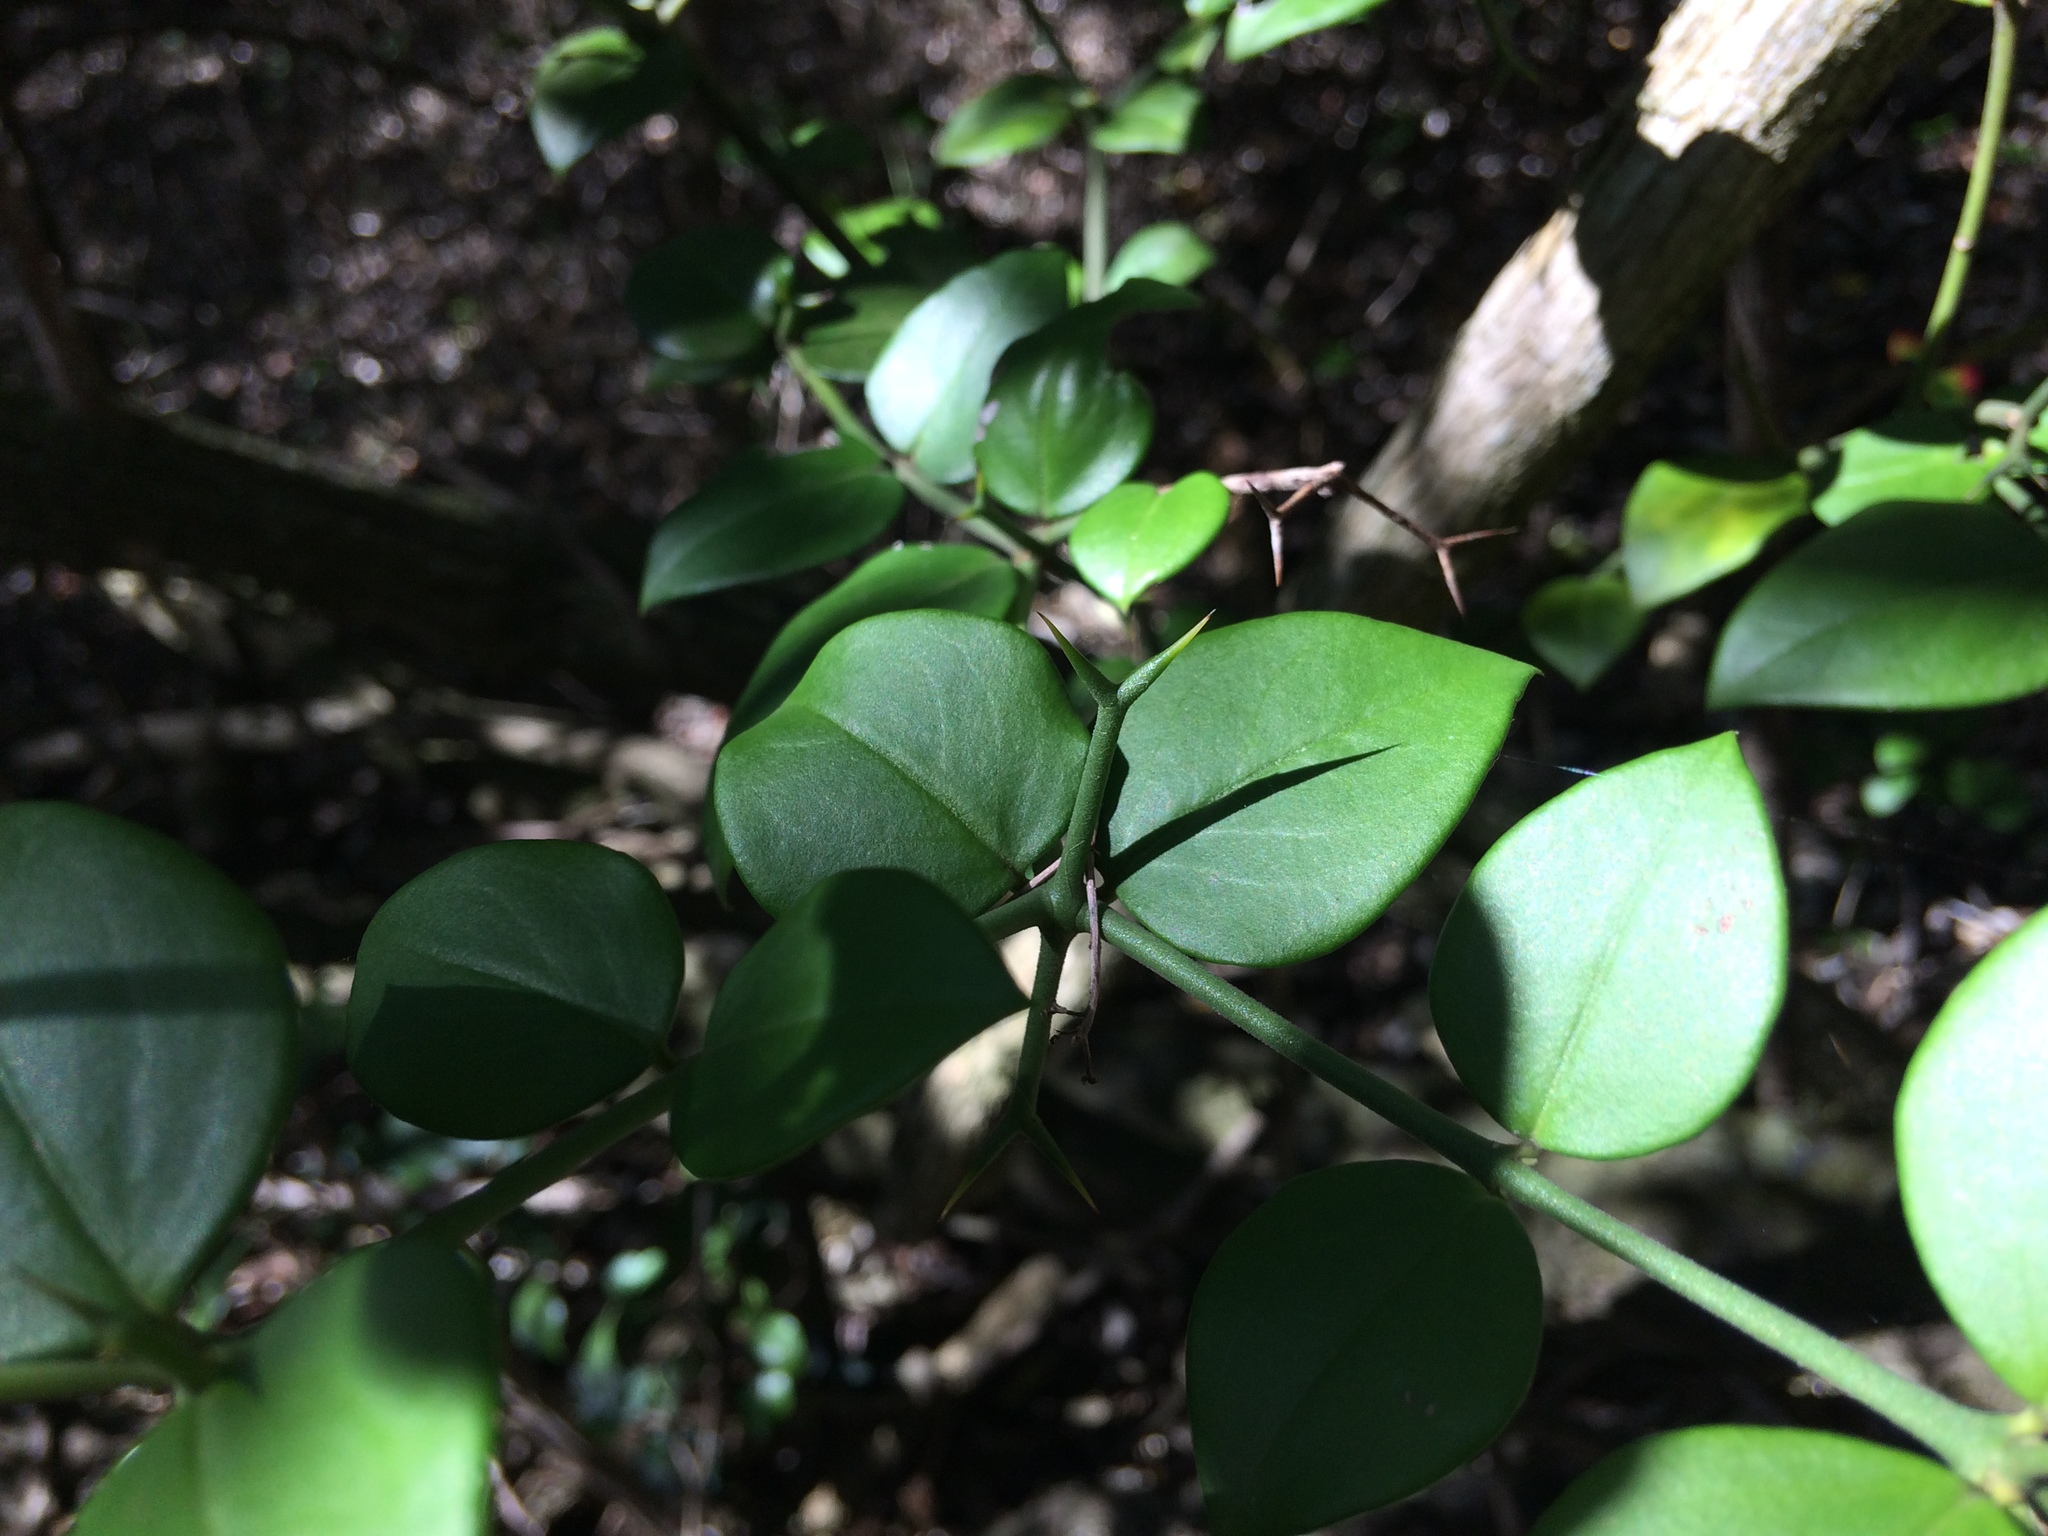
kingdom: Plantae
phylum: Tracheophyta
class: Magnoliopsida
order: Gentianales
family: Apocynaceae
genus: Carissa
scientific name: Carissa bispinosa
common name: Forest num-num
